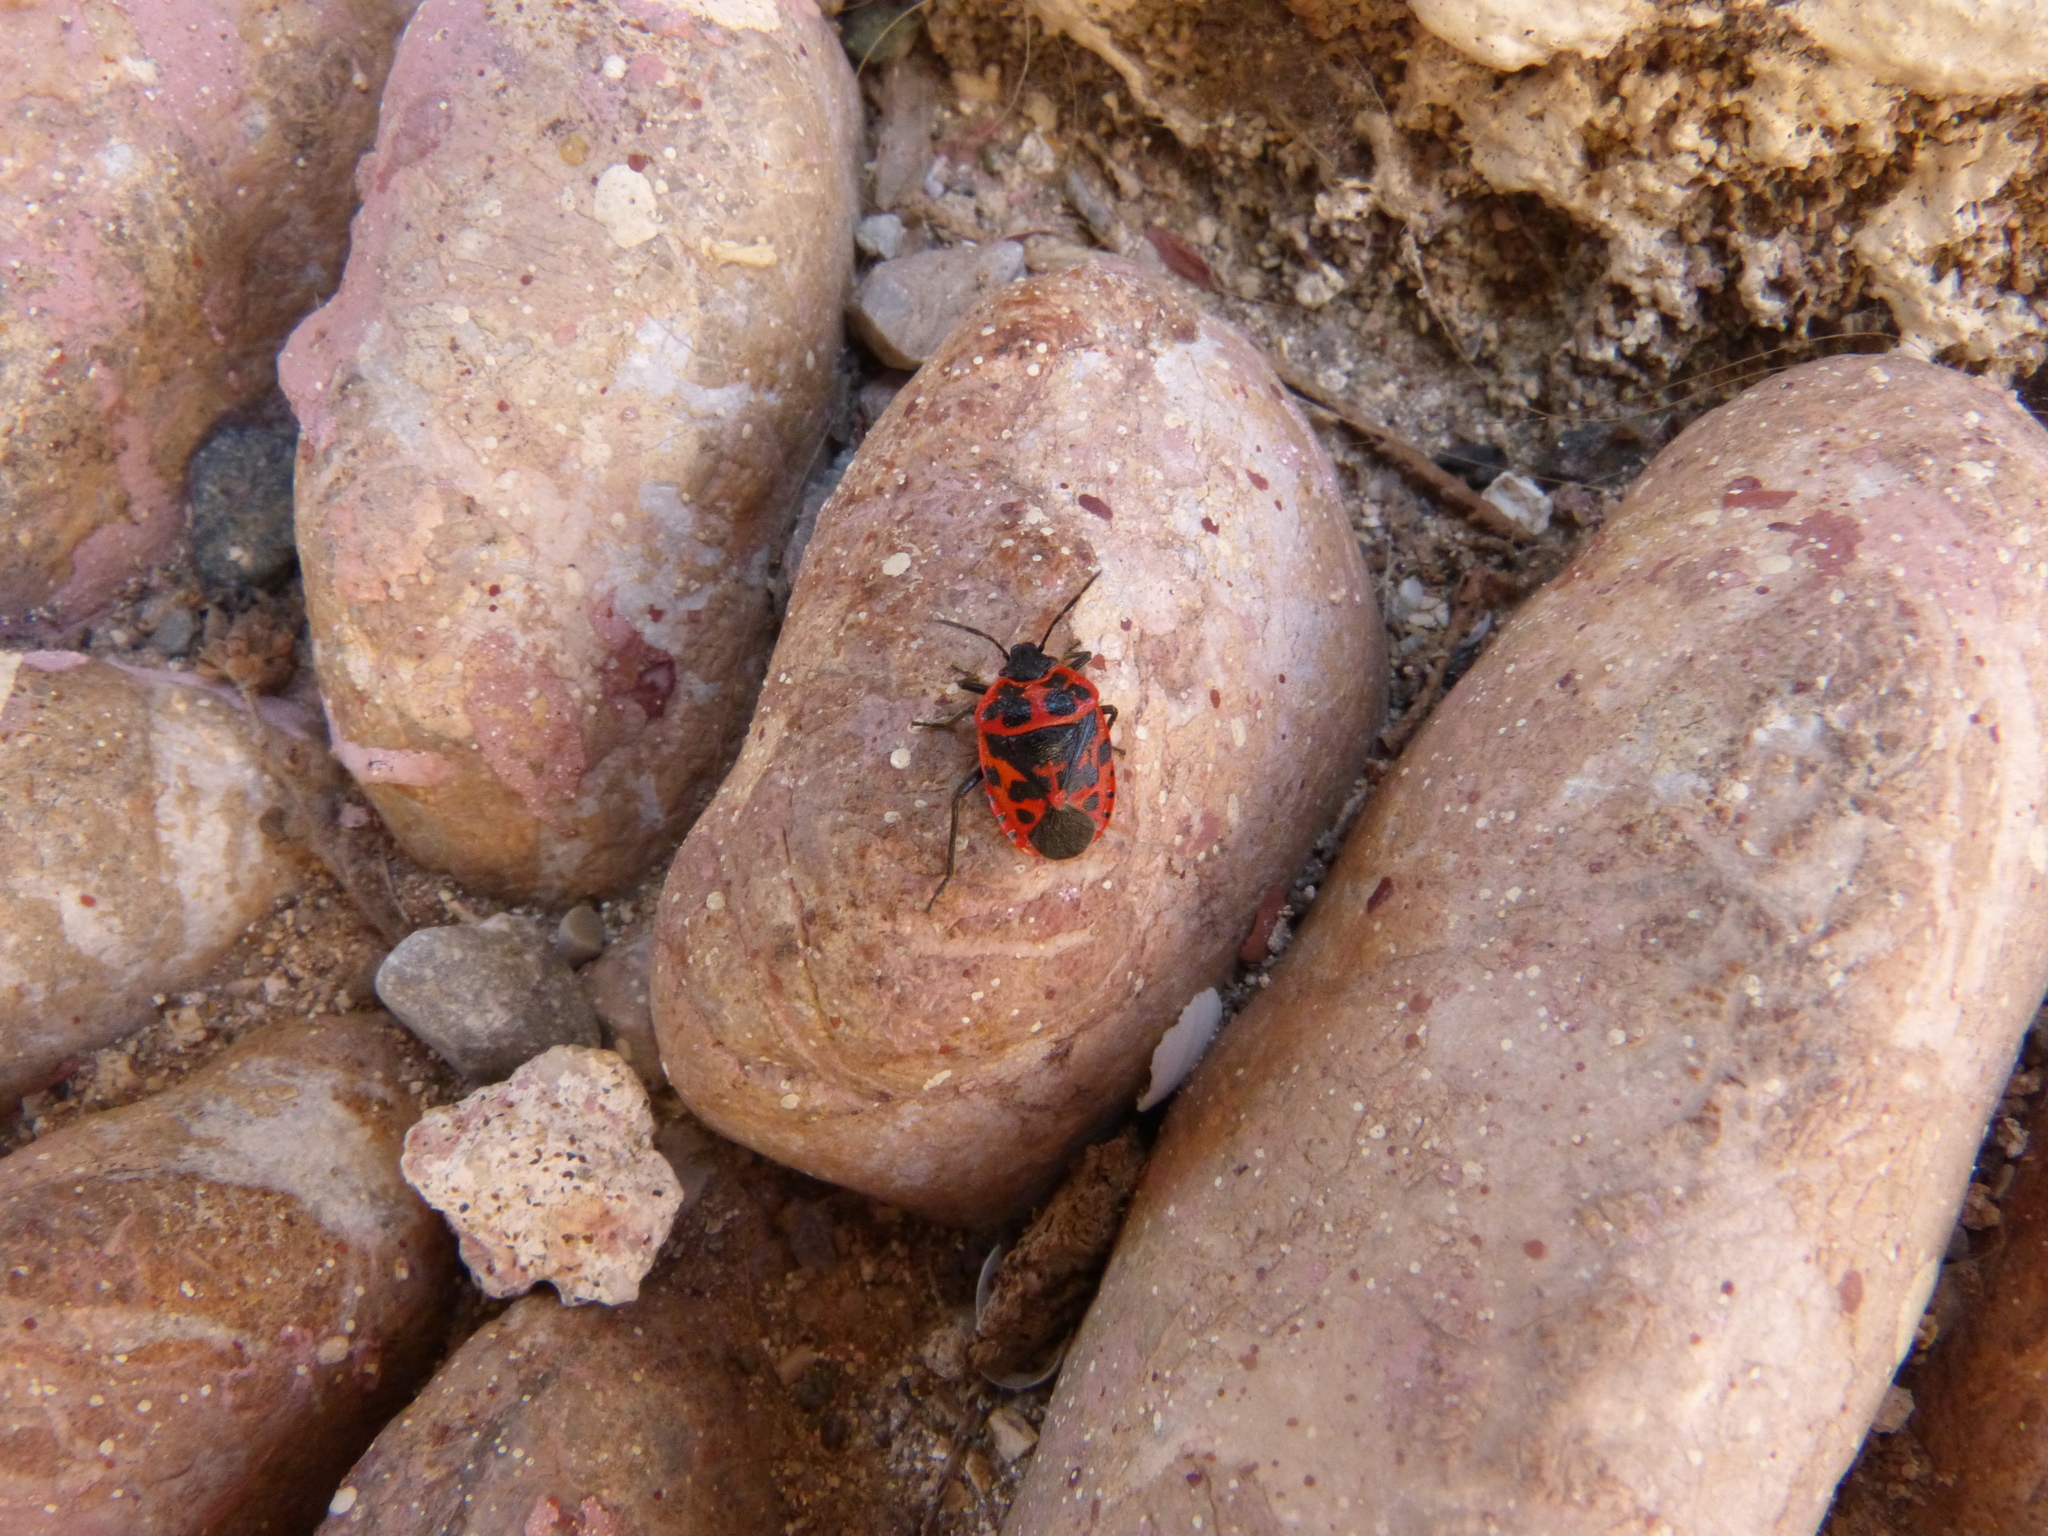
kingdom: Animalia
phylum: Arthropoda
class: Insecta
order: Hemiptera
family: Pentatomidae
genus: Eurydema
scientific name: Eurydema eckerleini
